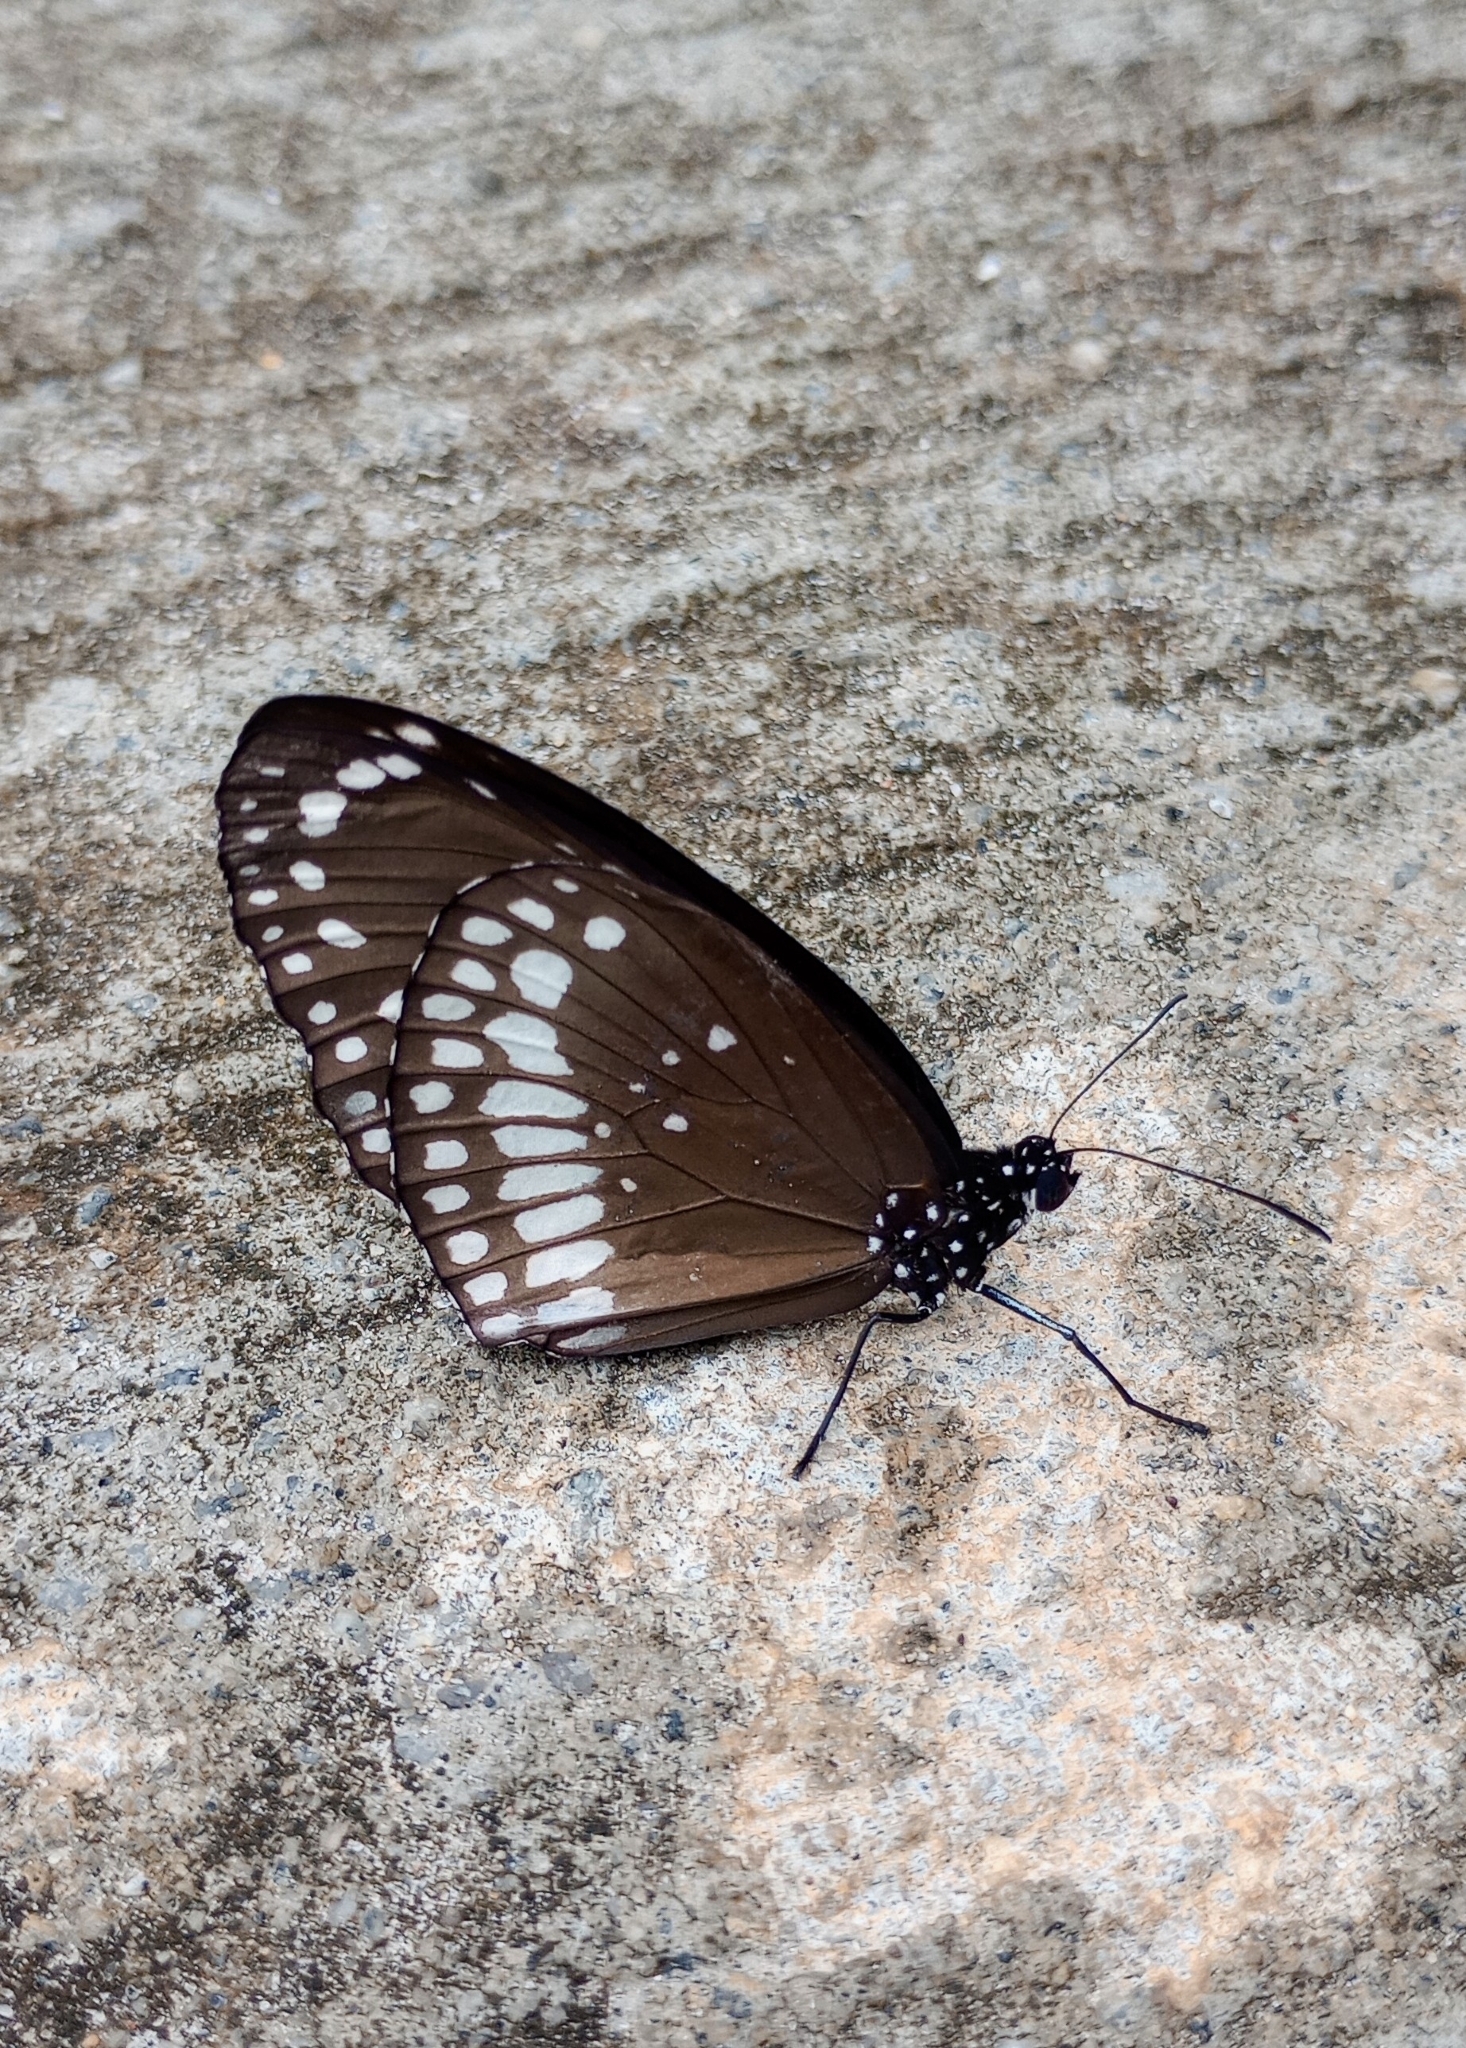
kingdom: Animalia
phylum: Arthropoda
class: Insecta
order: Lepidoptera
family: Nymphalidae
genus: Euploea
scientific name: Euploea core
